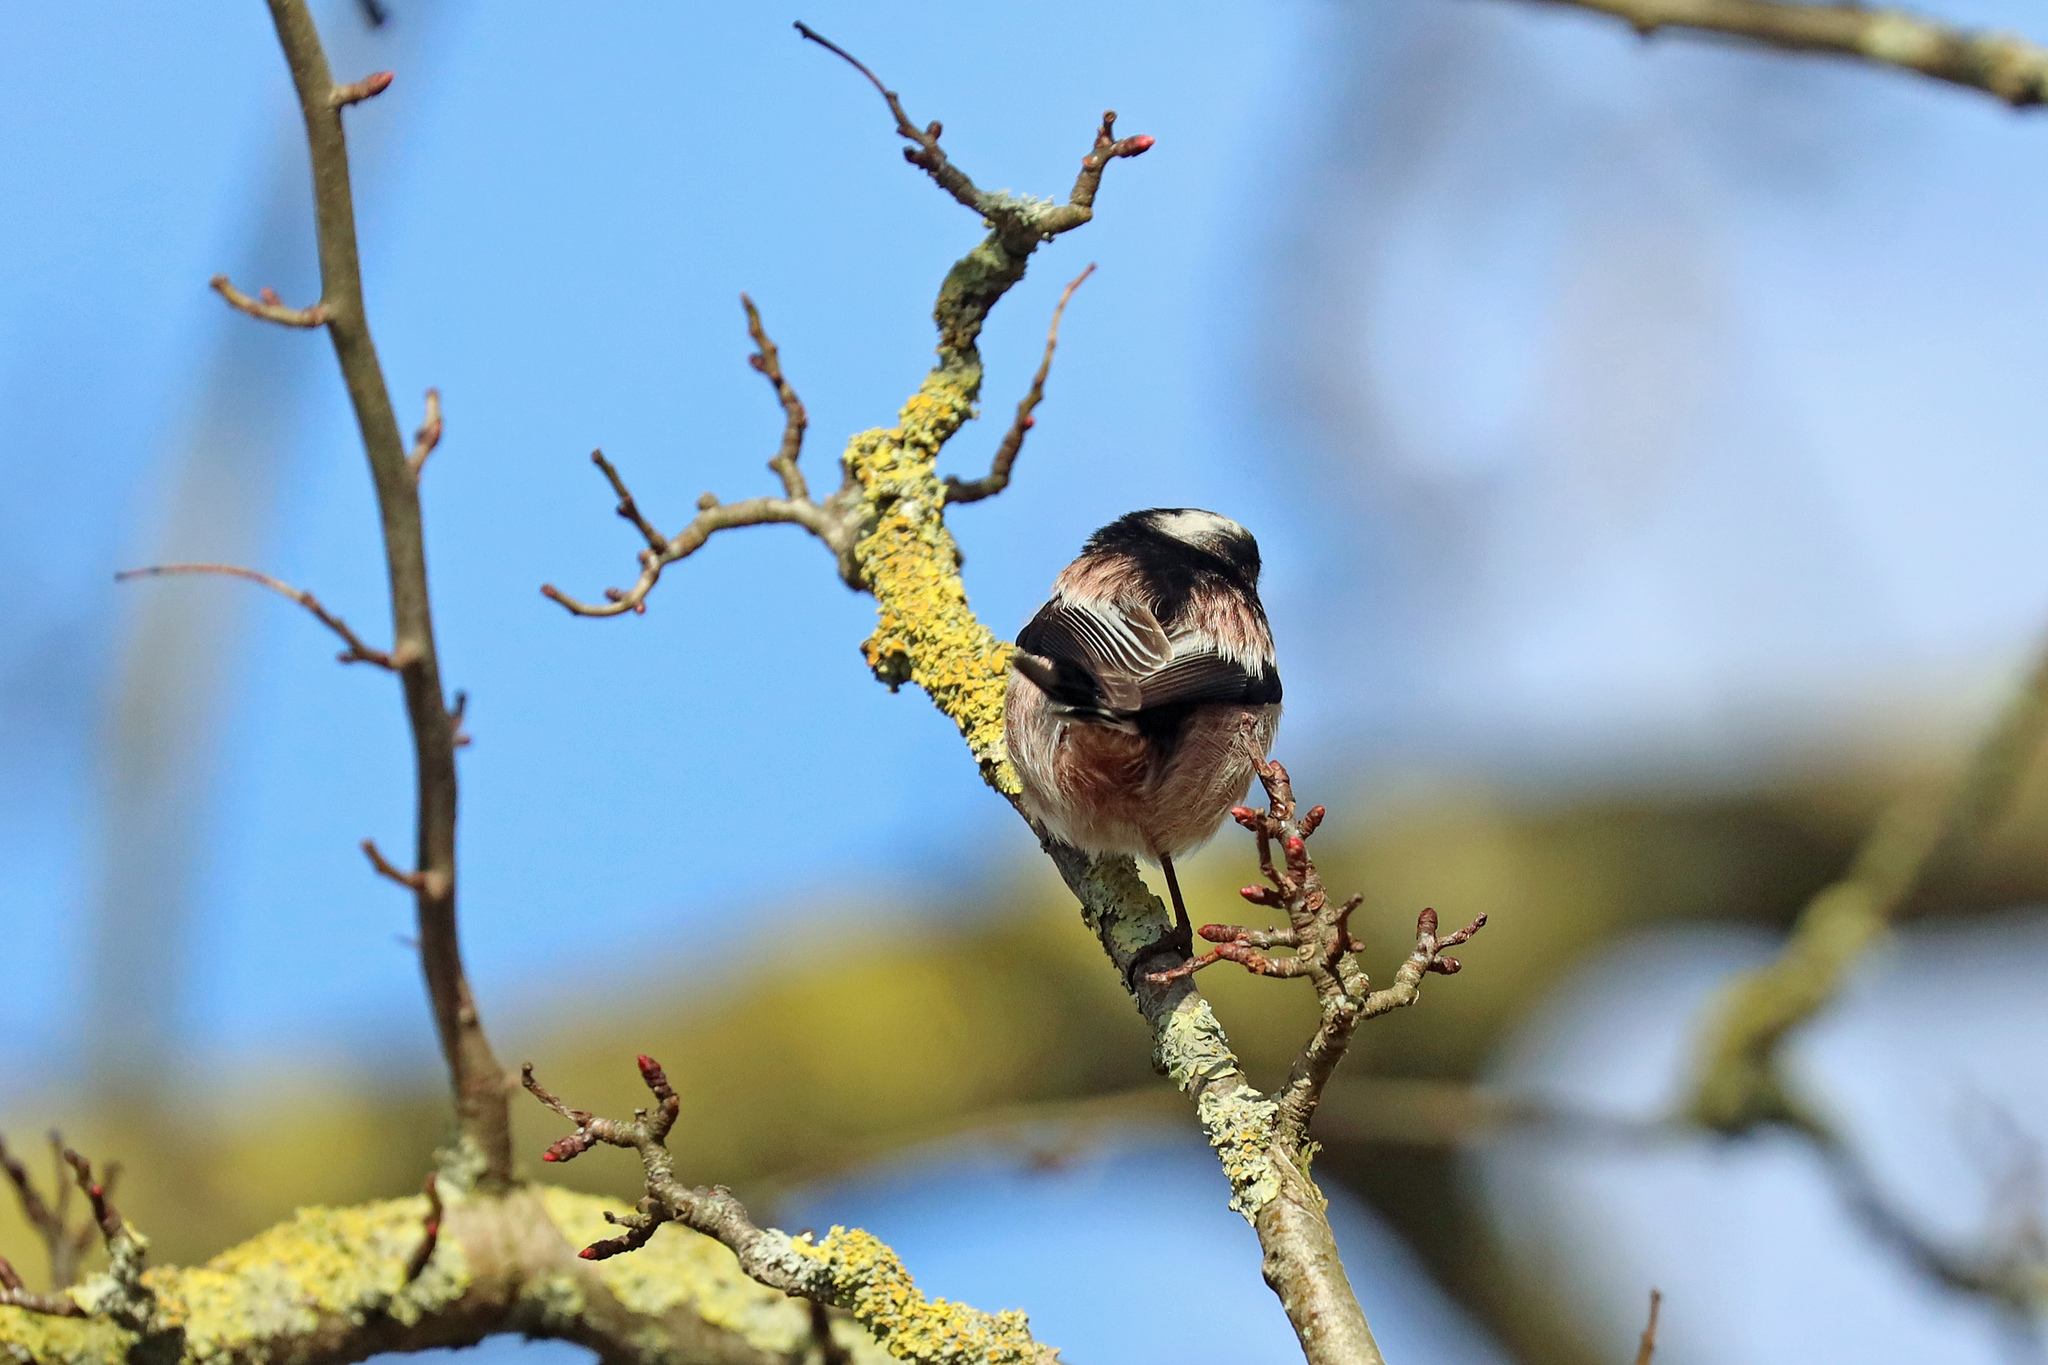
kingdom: Animalia
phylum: Chordata
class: Aves
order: Passeriformes
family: Aegithalidae
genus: Aegithalos
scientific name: Aegithalos caudatus
